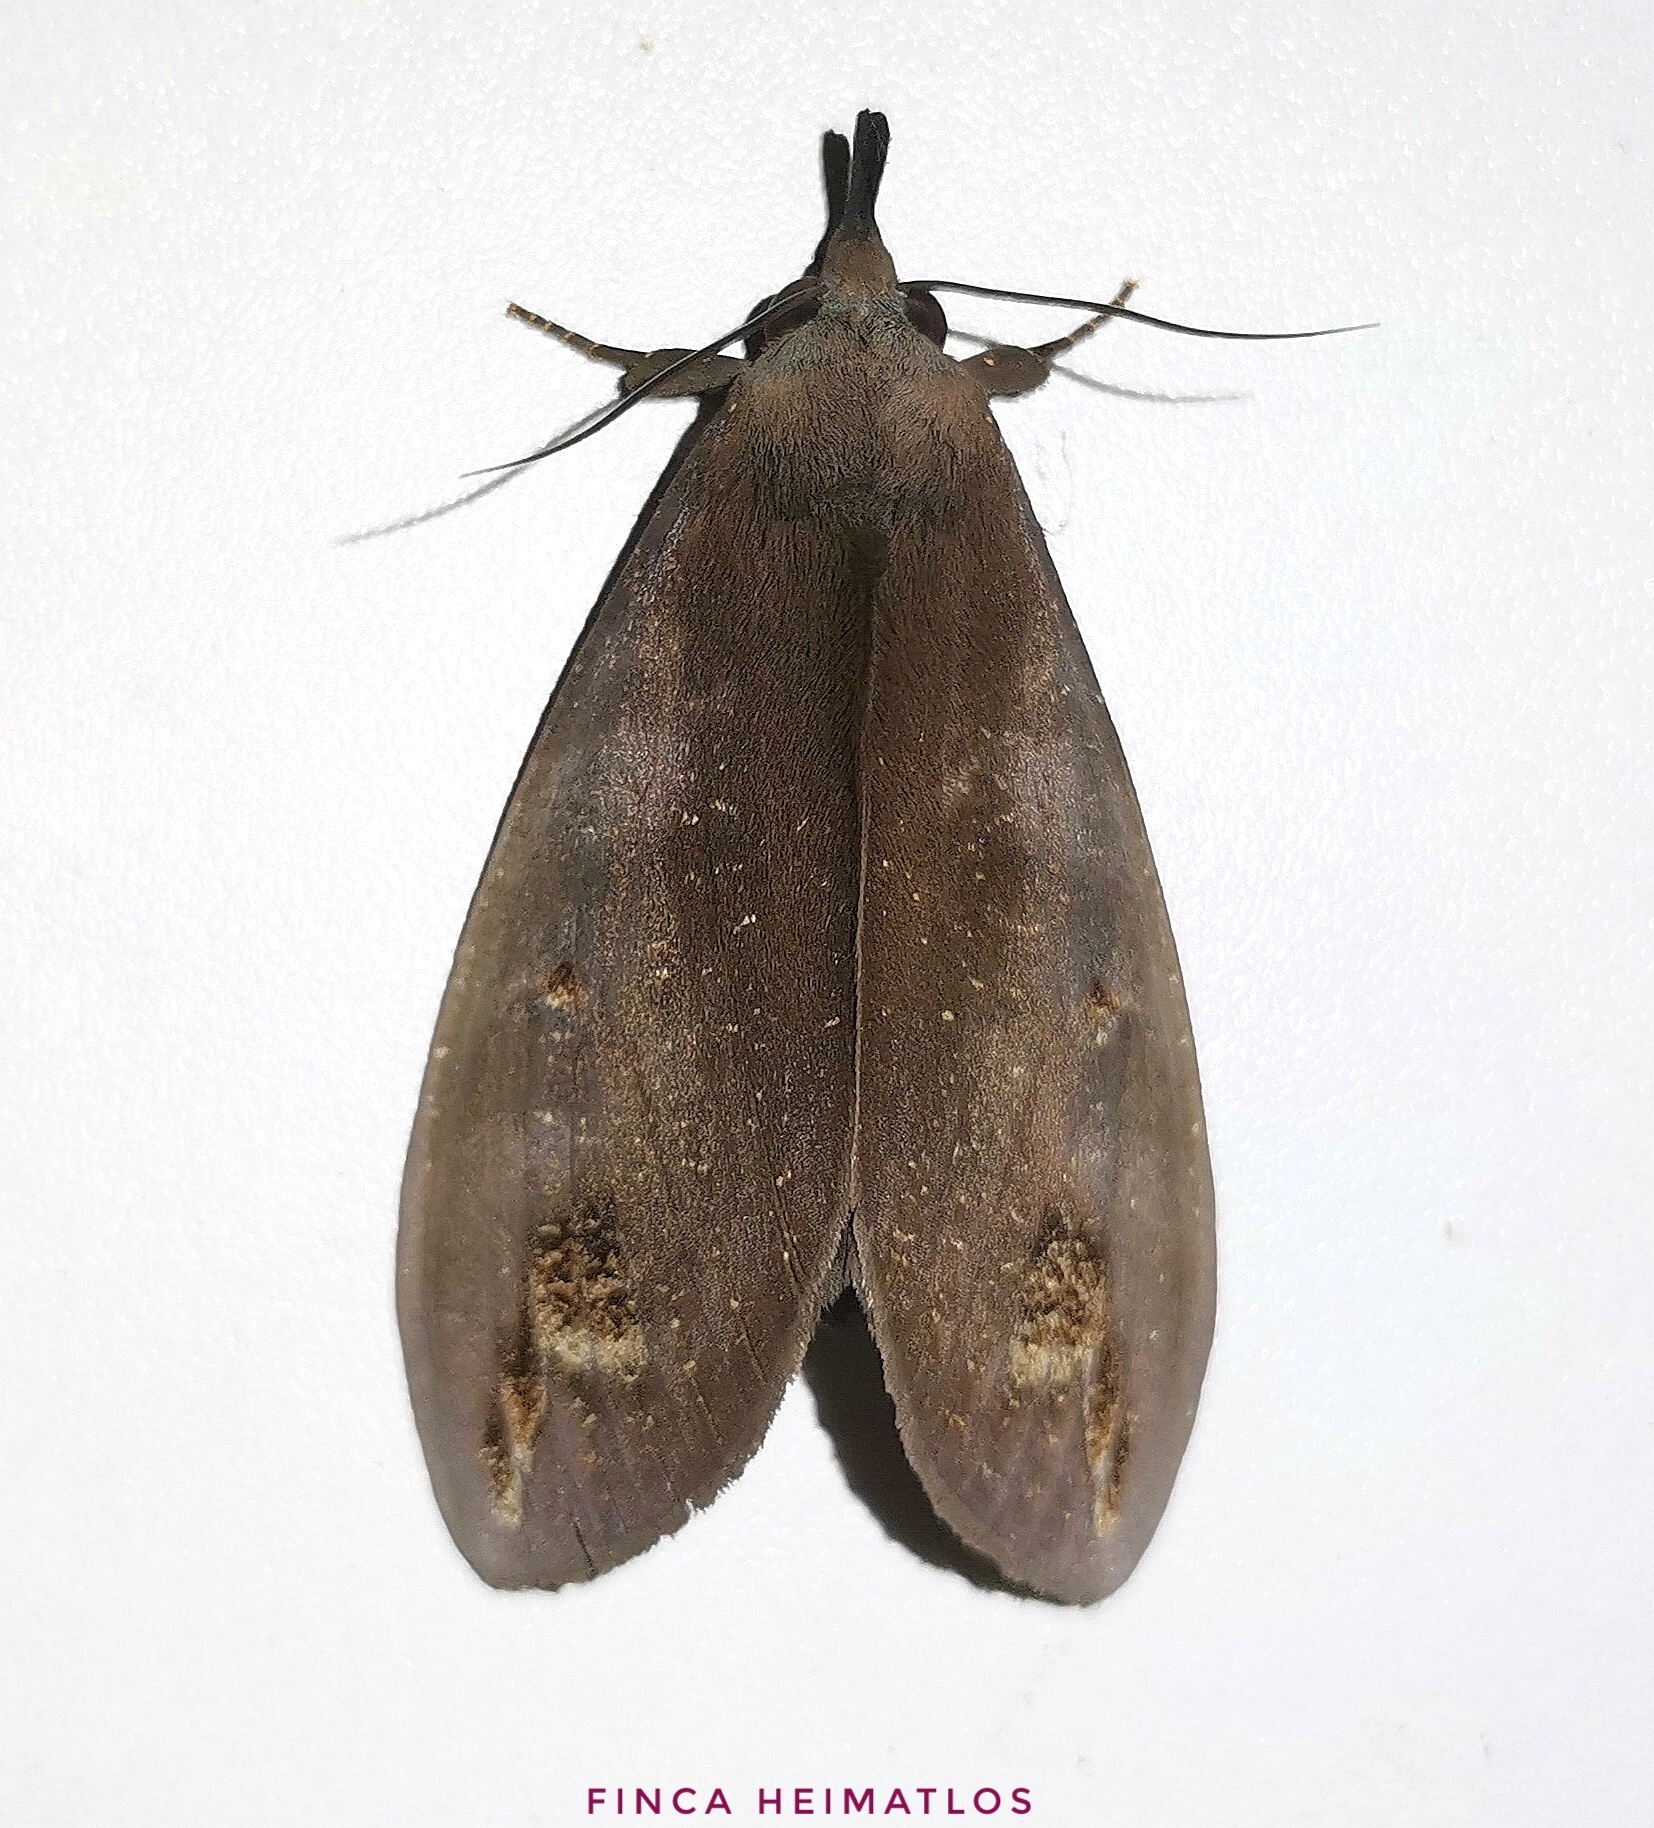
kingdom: Animalia
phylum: Arthropoda
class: Insecta
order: Lepidoptera
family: Erebidae
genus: Tetrisia
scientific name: Tetrisia florigera
